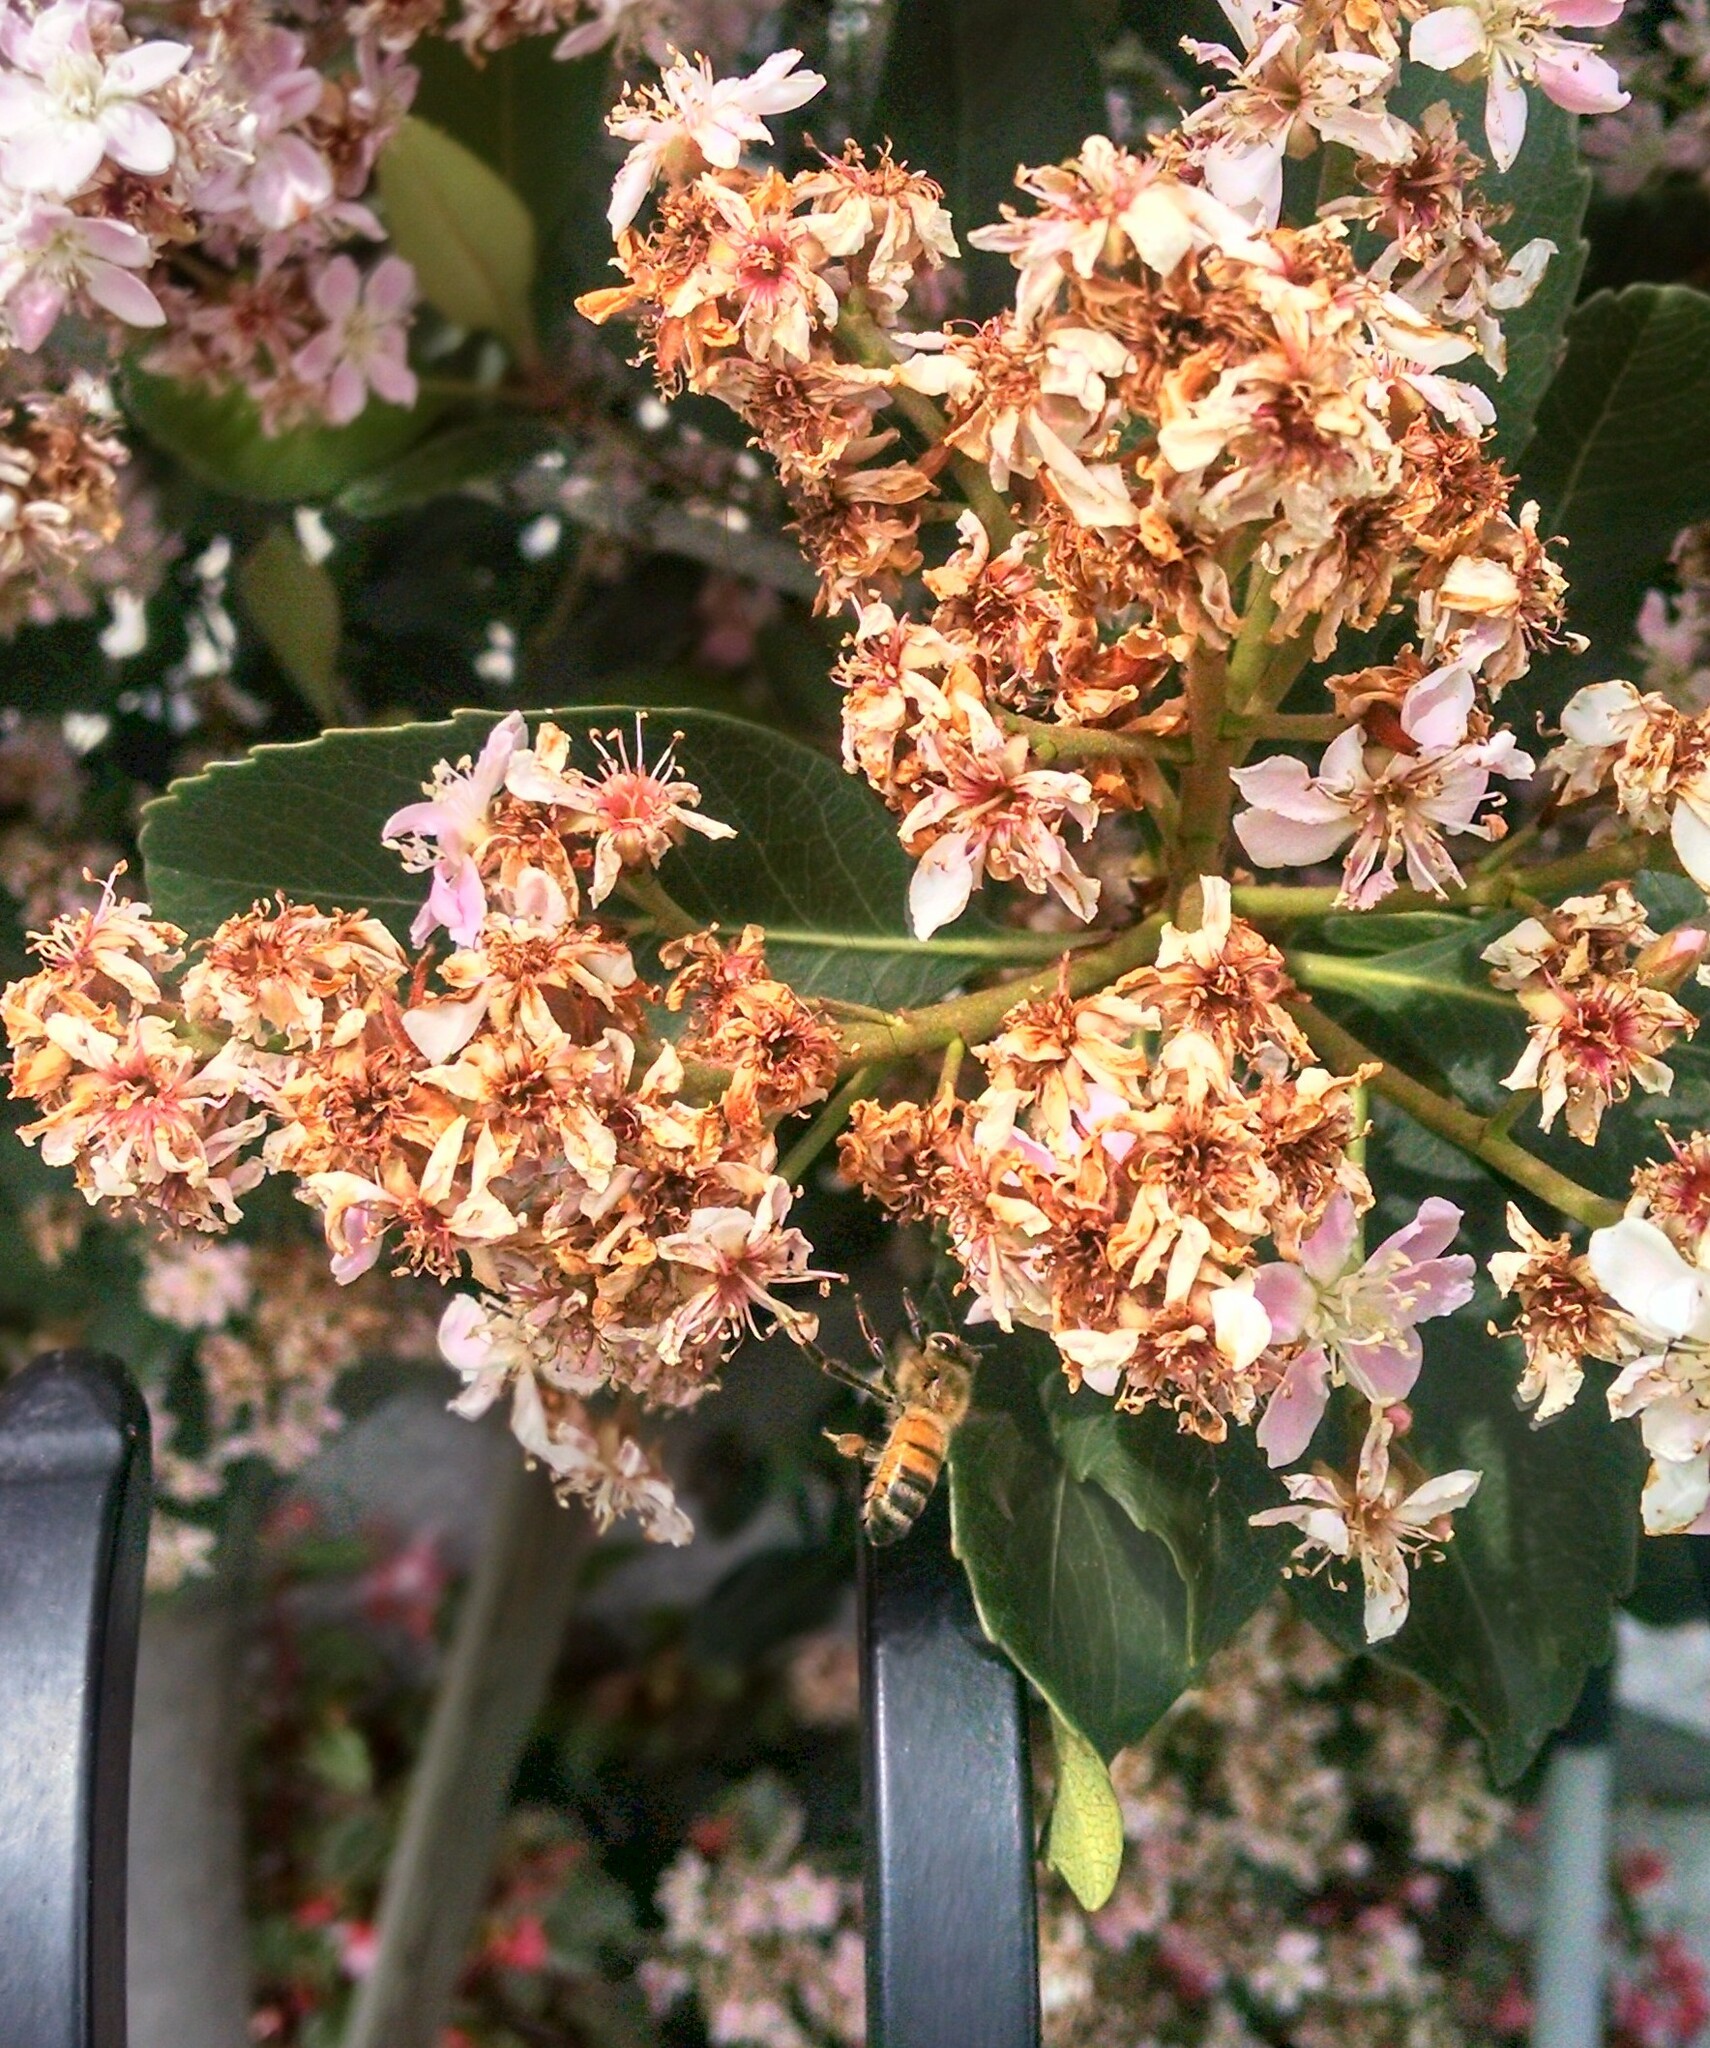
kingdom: Animalia
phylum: Arthropoda
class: Insecta
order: Hymenoptera
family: Apidae
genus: Apis
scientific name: Apis mellifera
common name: Honey bee
